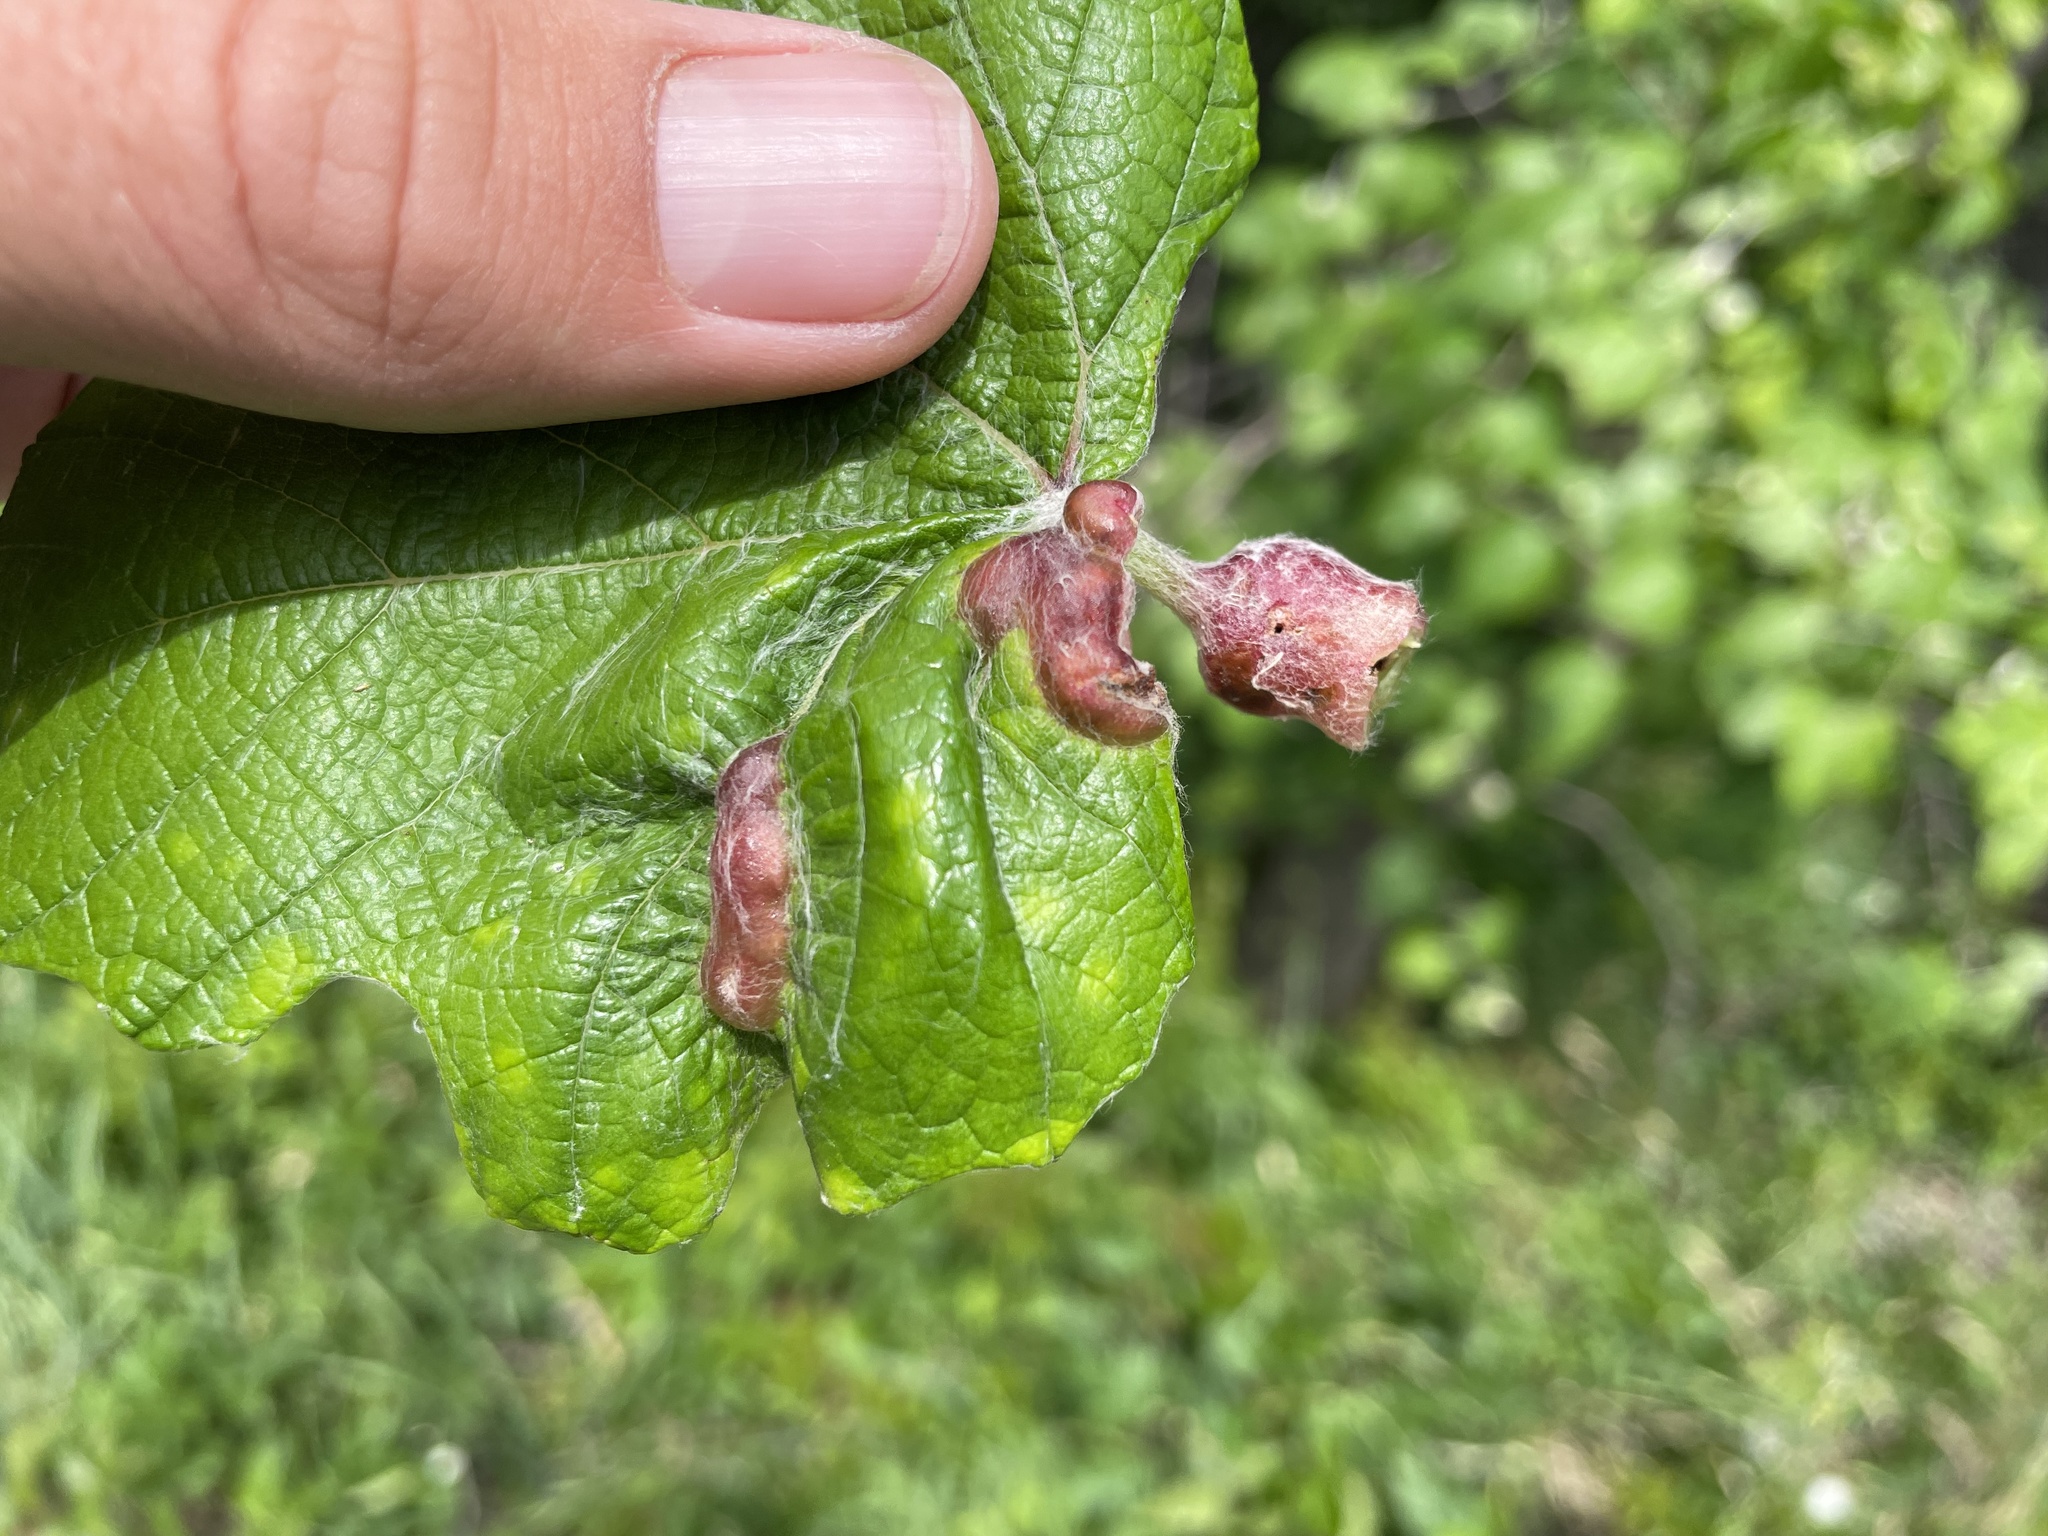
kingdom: Animalia
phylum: Arthropoda
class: Insecta
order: Diptera
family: Cecidomyiidae
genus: Vitisiella
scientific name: Vitisiella brevicauda
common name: Grape tumid gallmaker midge
